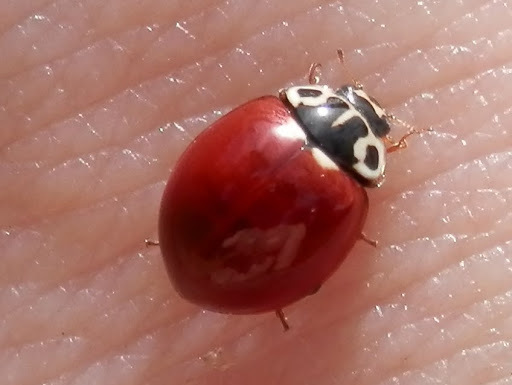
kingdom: Animalia
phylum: Arthropoda
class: Insecta
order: Coleoptera
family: Coccinellidae
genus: Cycloneda
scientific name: Cycloneda polita
